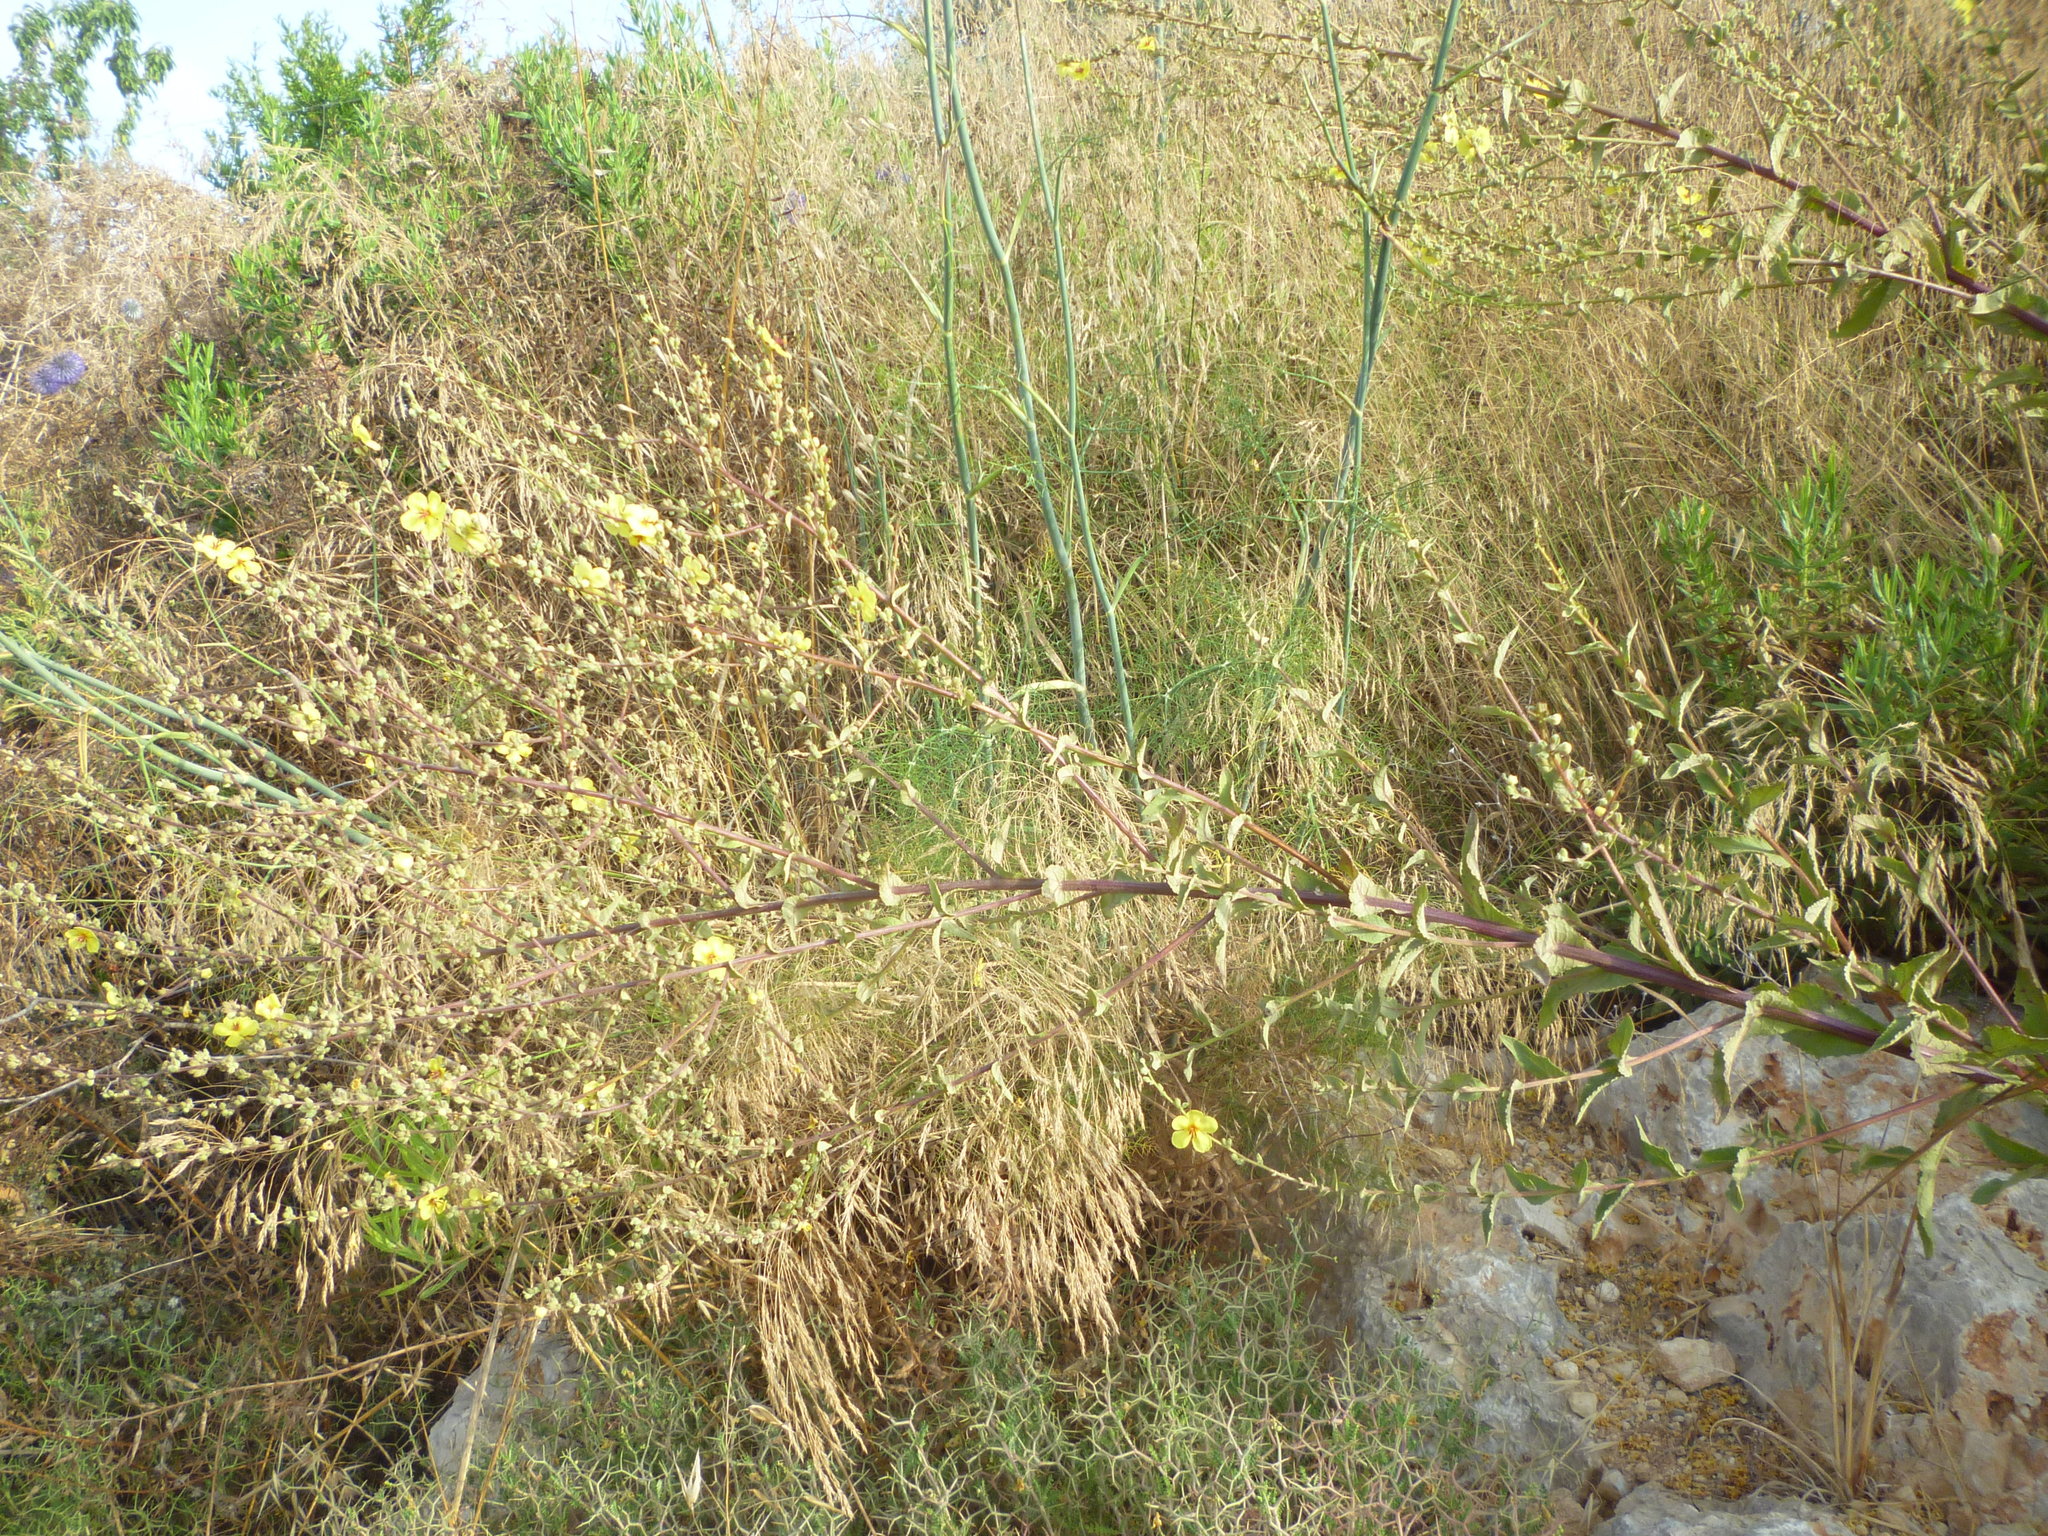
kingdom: Plantae
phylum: Tracheophyta
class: Magnoliopsida
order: Lamiales
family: Scrophulariaceae
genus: Verbascum
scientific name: Verbascum sinuatum
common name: Wavyleaf mullein
